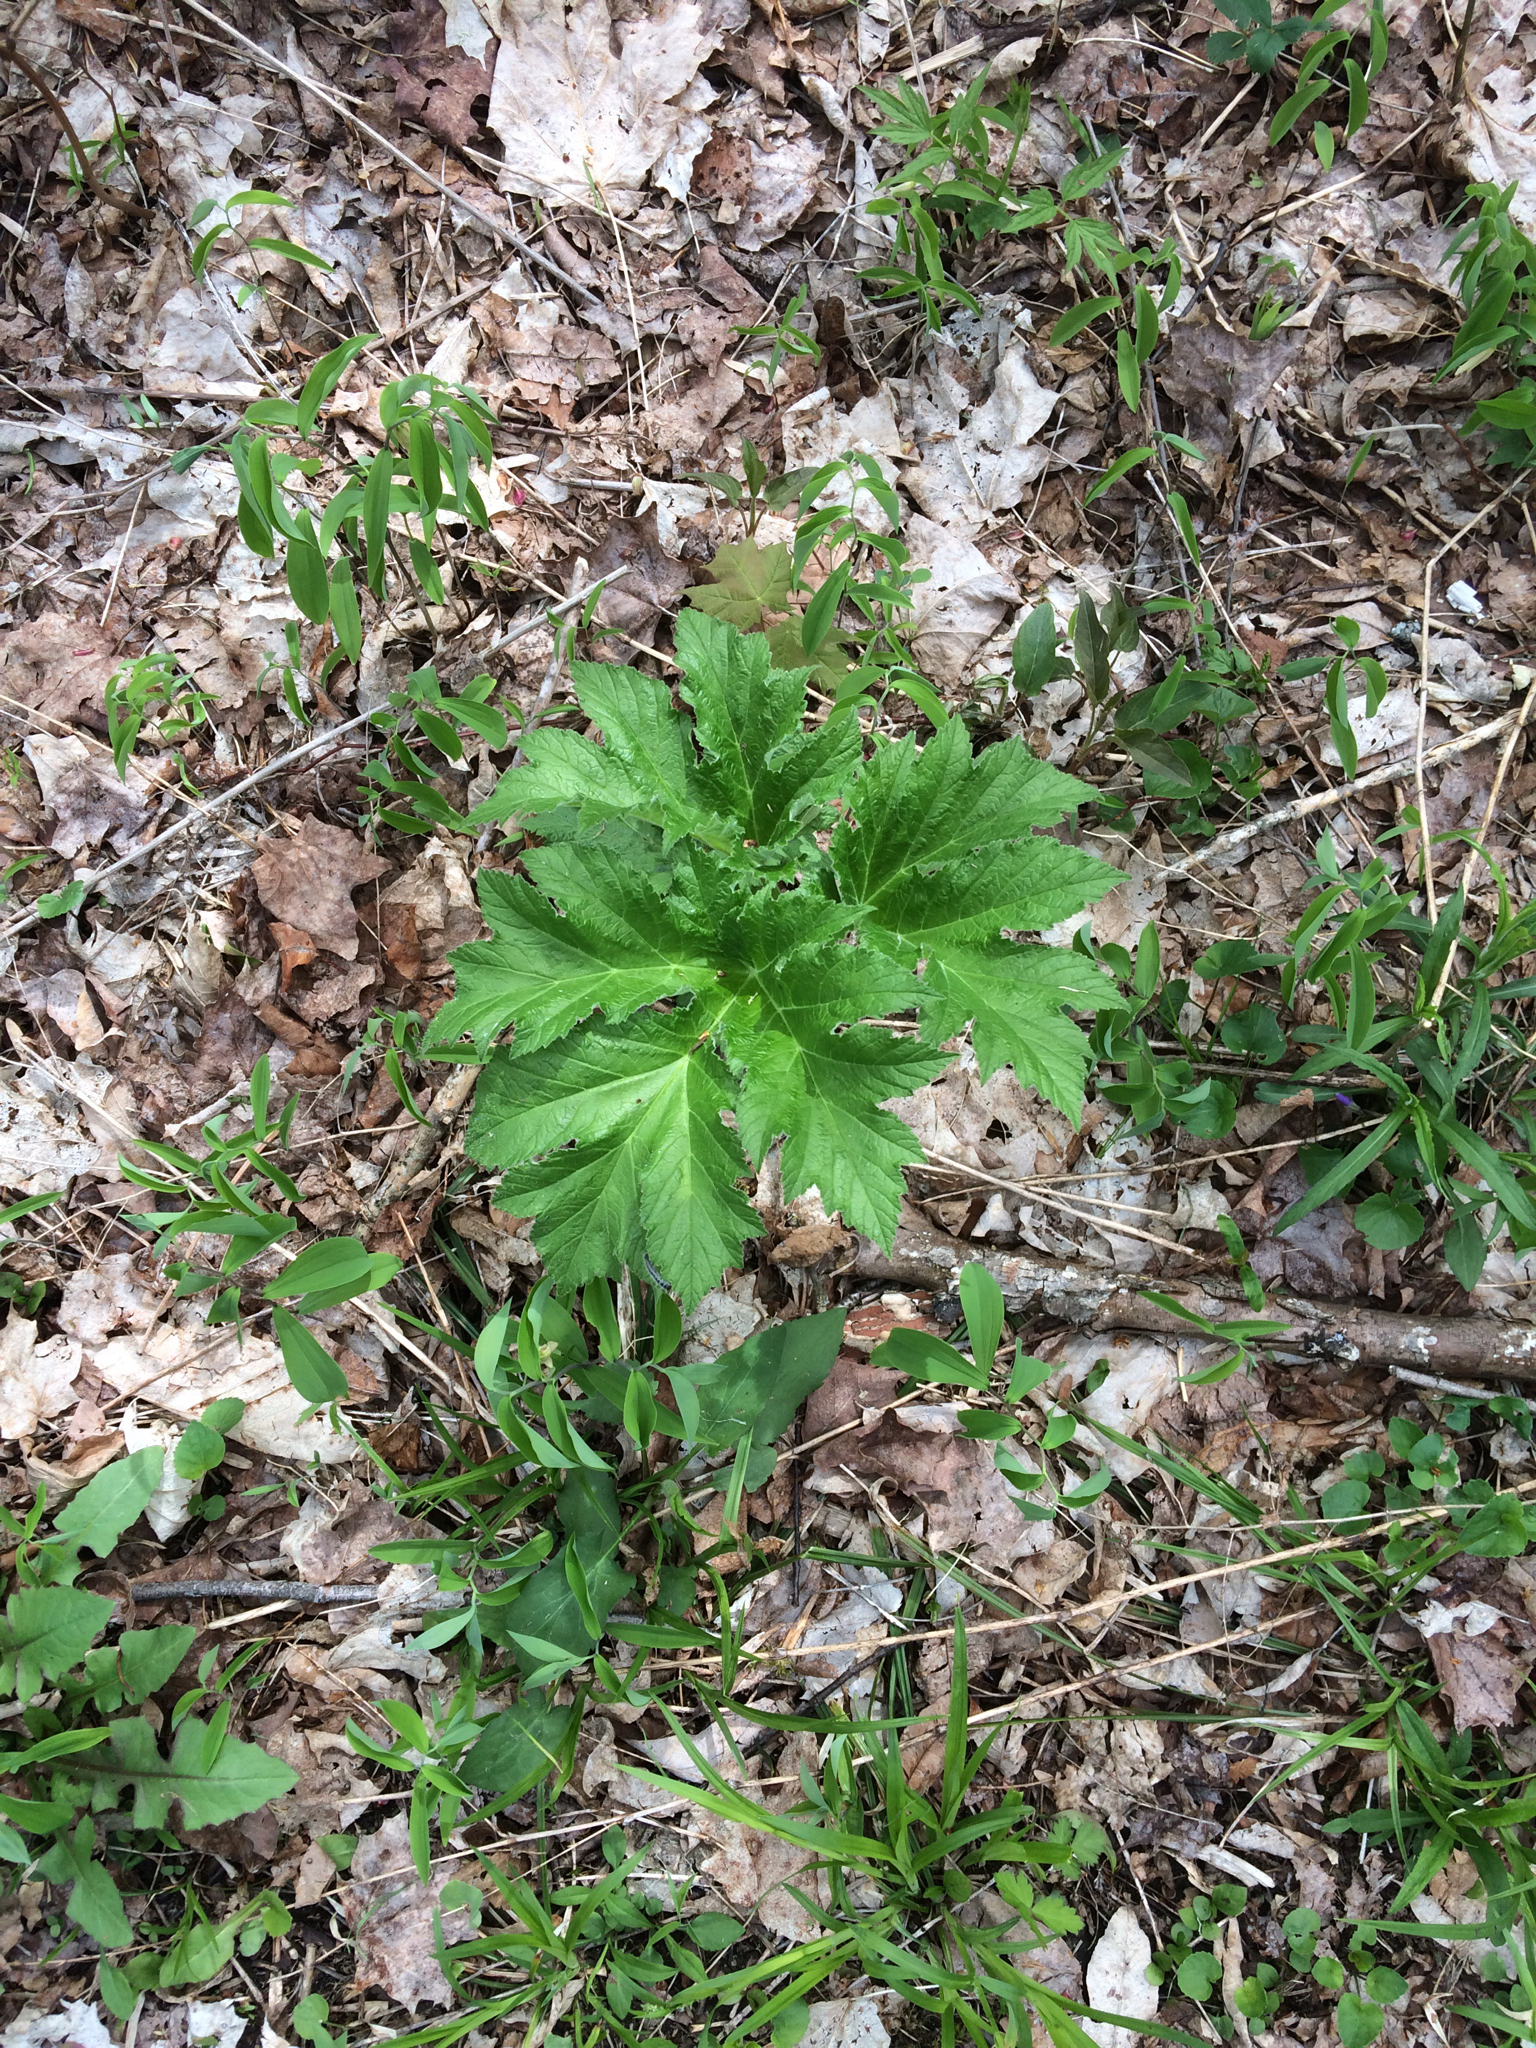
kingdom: Plantae
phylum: Tracheophyta
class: Magnoliopsida
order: Apiales
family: Apiaceae
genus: Heracleum
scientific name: Heracleum maximum
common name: American cow parsnip
